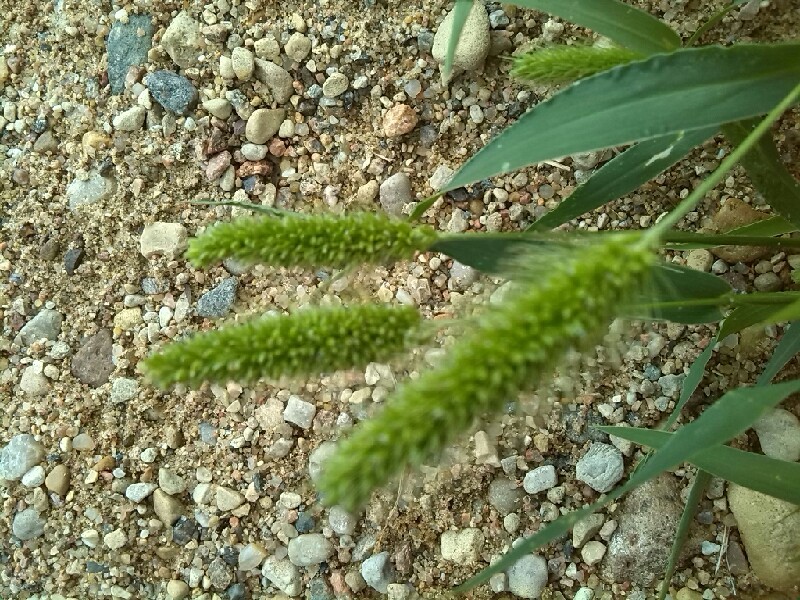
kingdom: Plantae
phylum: Tracheophyta
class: Liliopsida
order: Poales
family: Poaceae
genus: Setaria
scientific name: Setaria viridis
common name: Green bristlegrass
